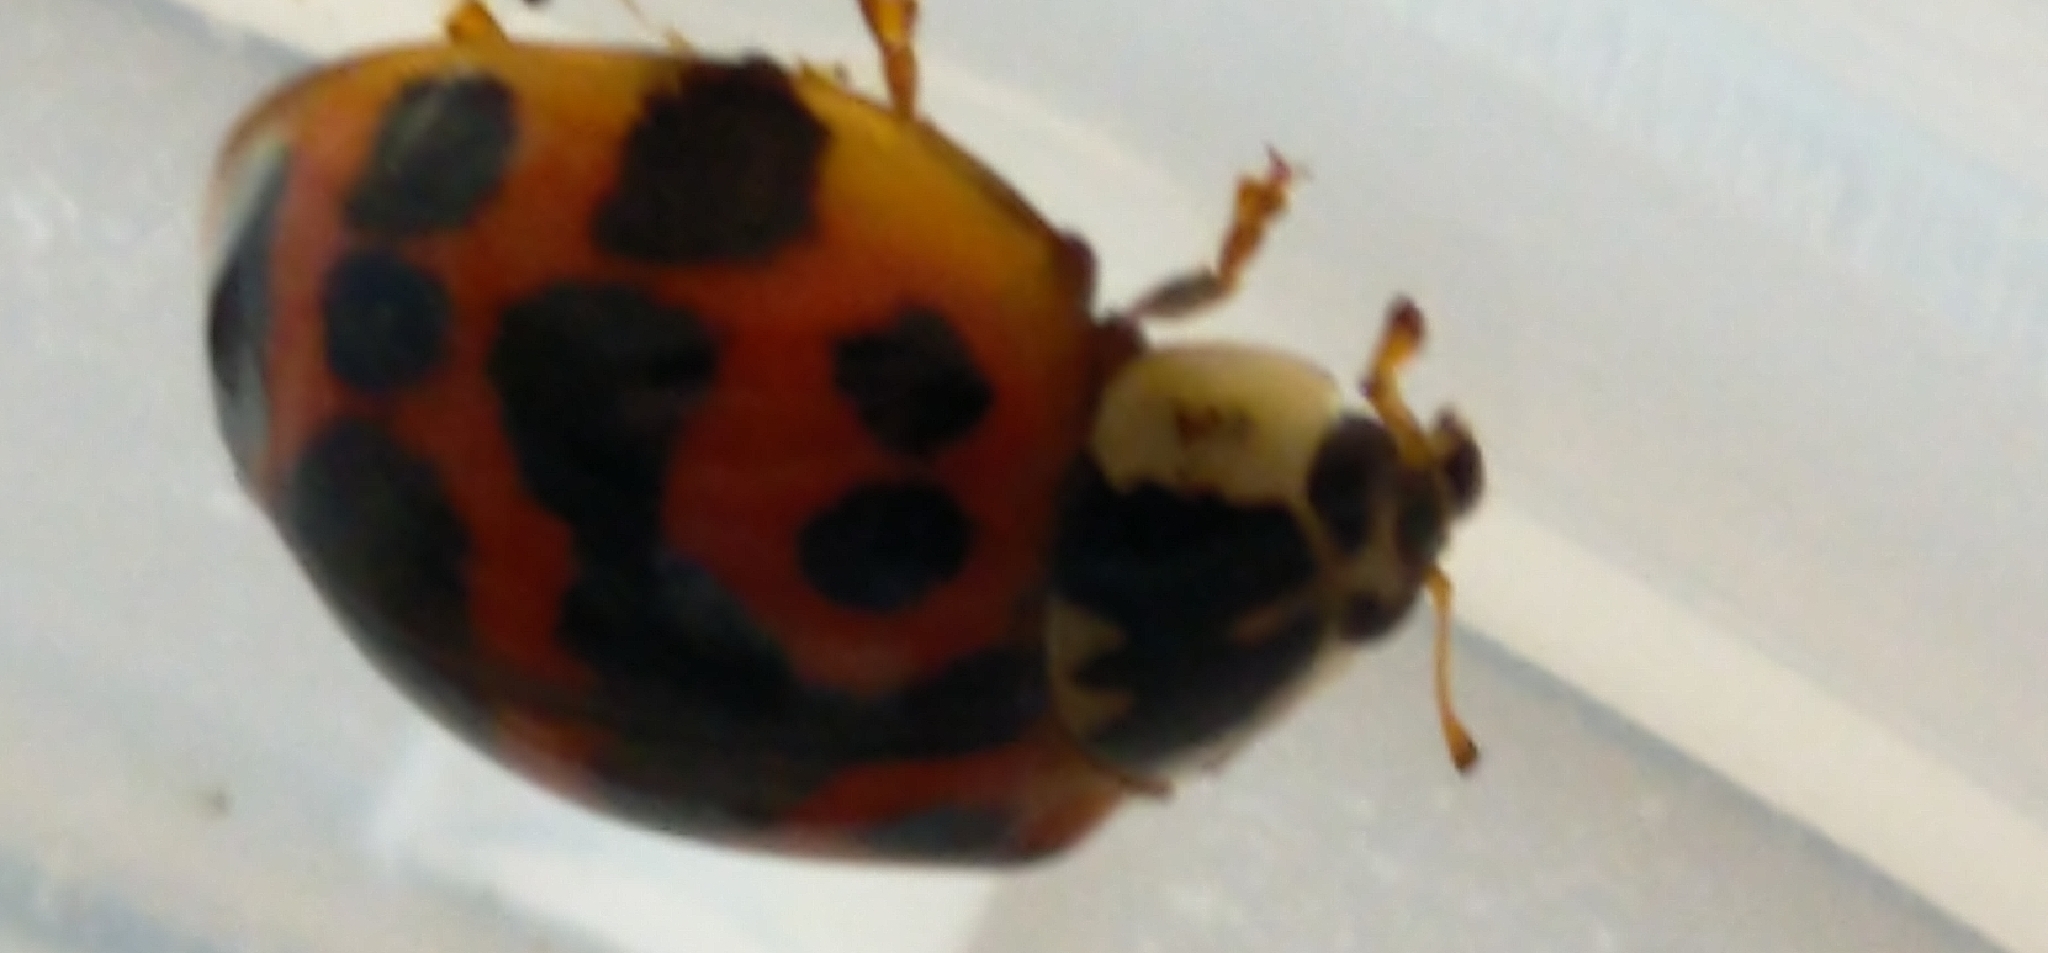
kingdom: Animalia
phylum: Arthropoda
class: Insecta
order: Coleoptera
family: Coccinellidae
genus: Harmonia
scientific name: Harmonia axyridis
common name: Harlequin ladybird
